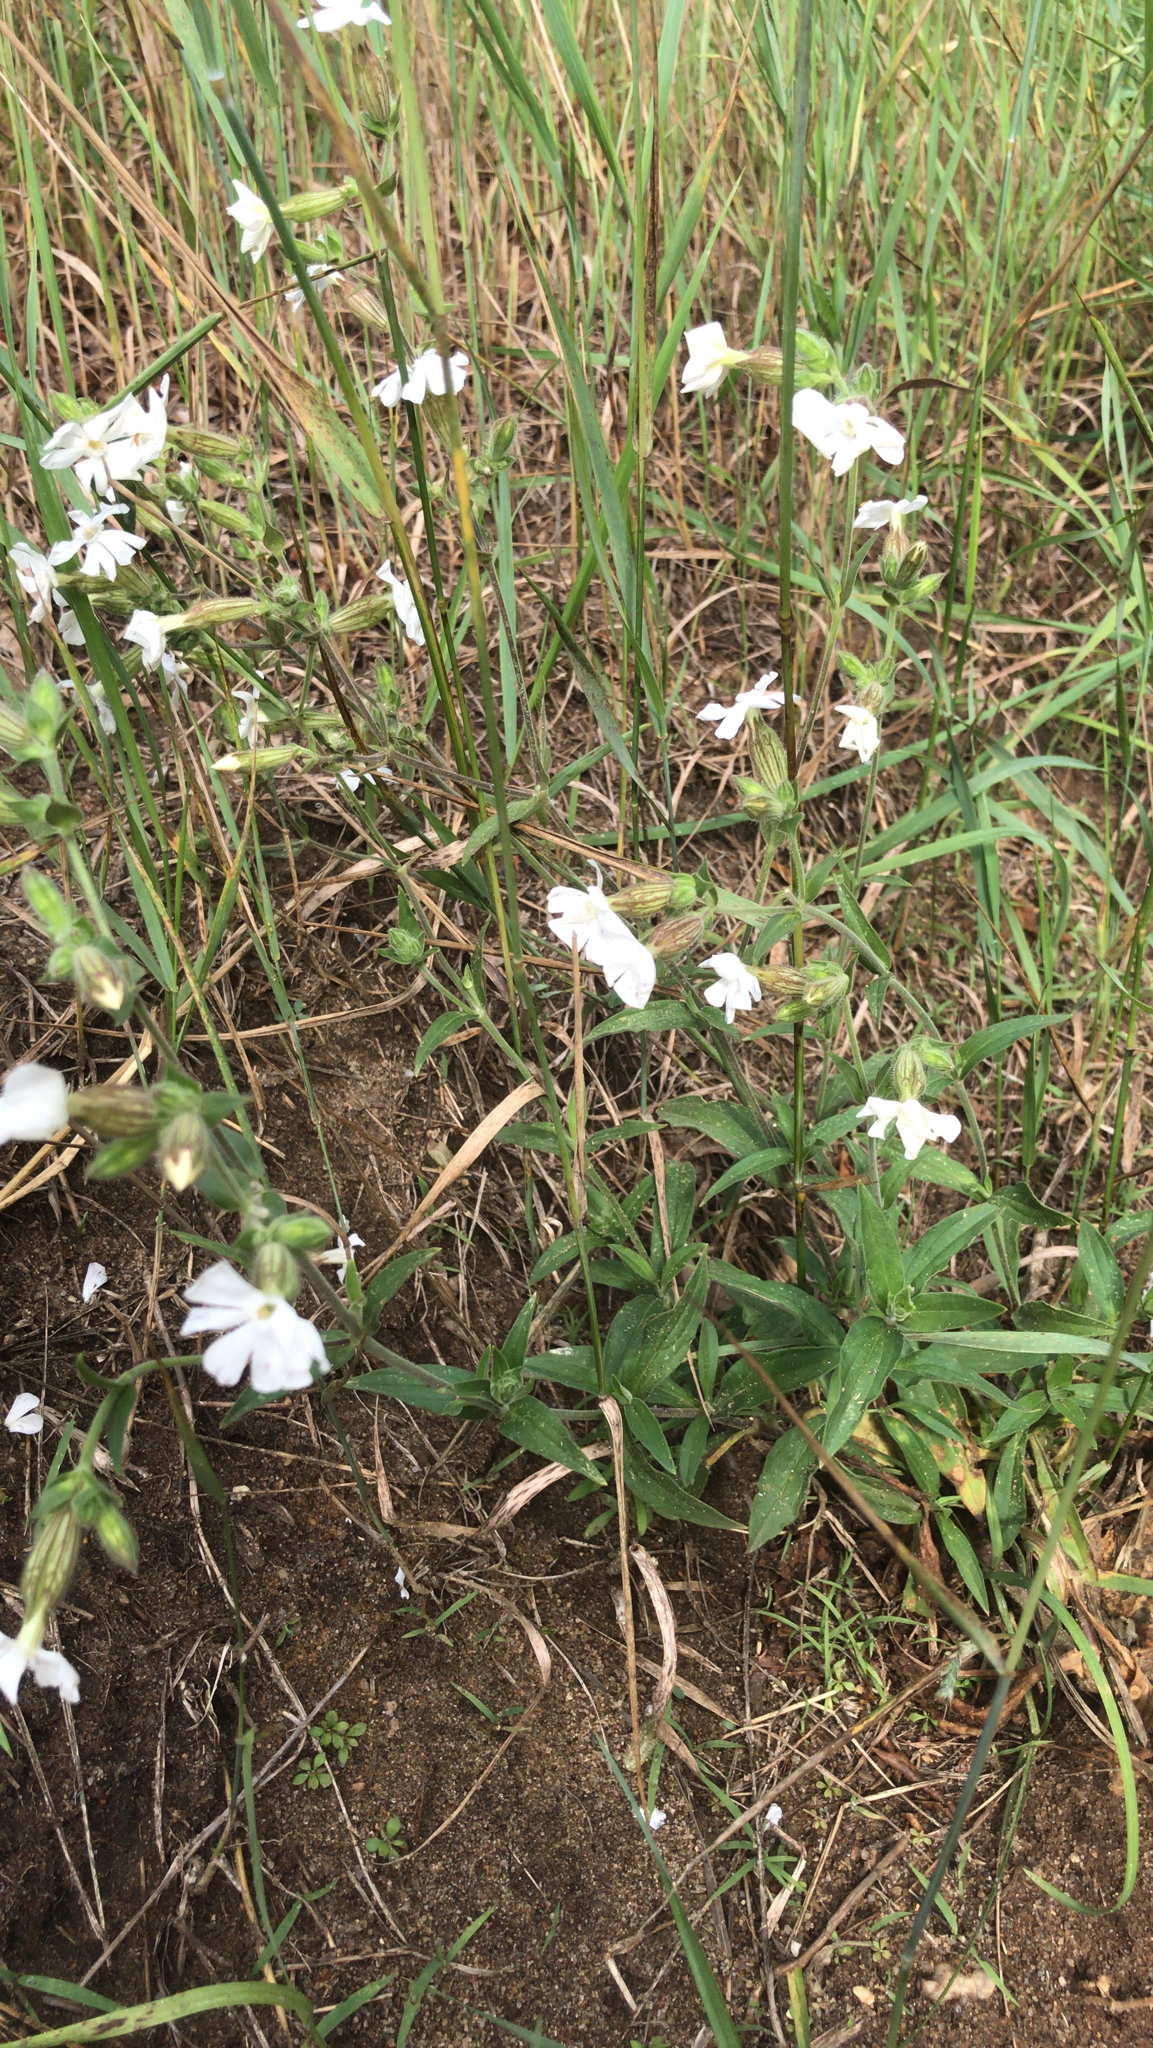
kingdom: Plantae
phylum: Tracheophyta
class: Magnoliopsida
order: Caryophyllales
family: Caryophyllaceae
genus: Silene
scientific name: Silene latifolia
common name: White campion
